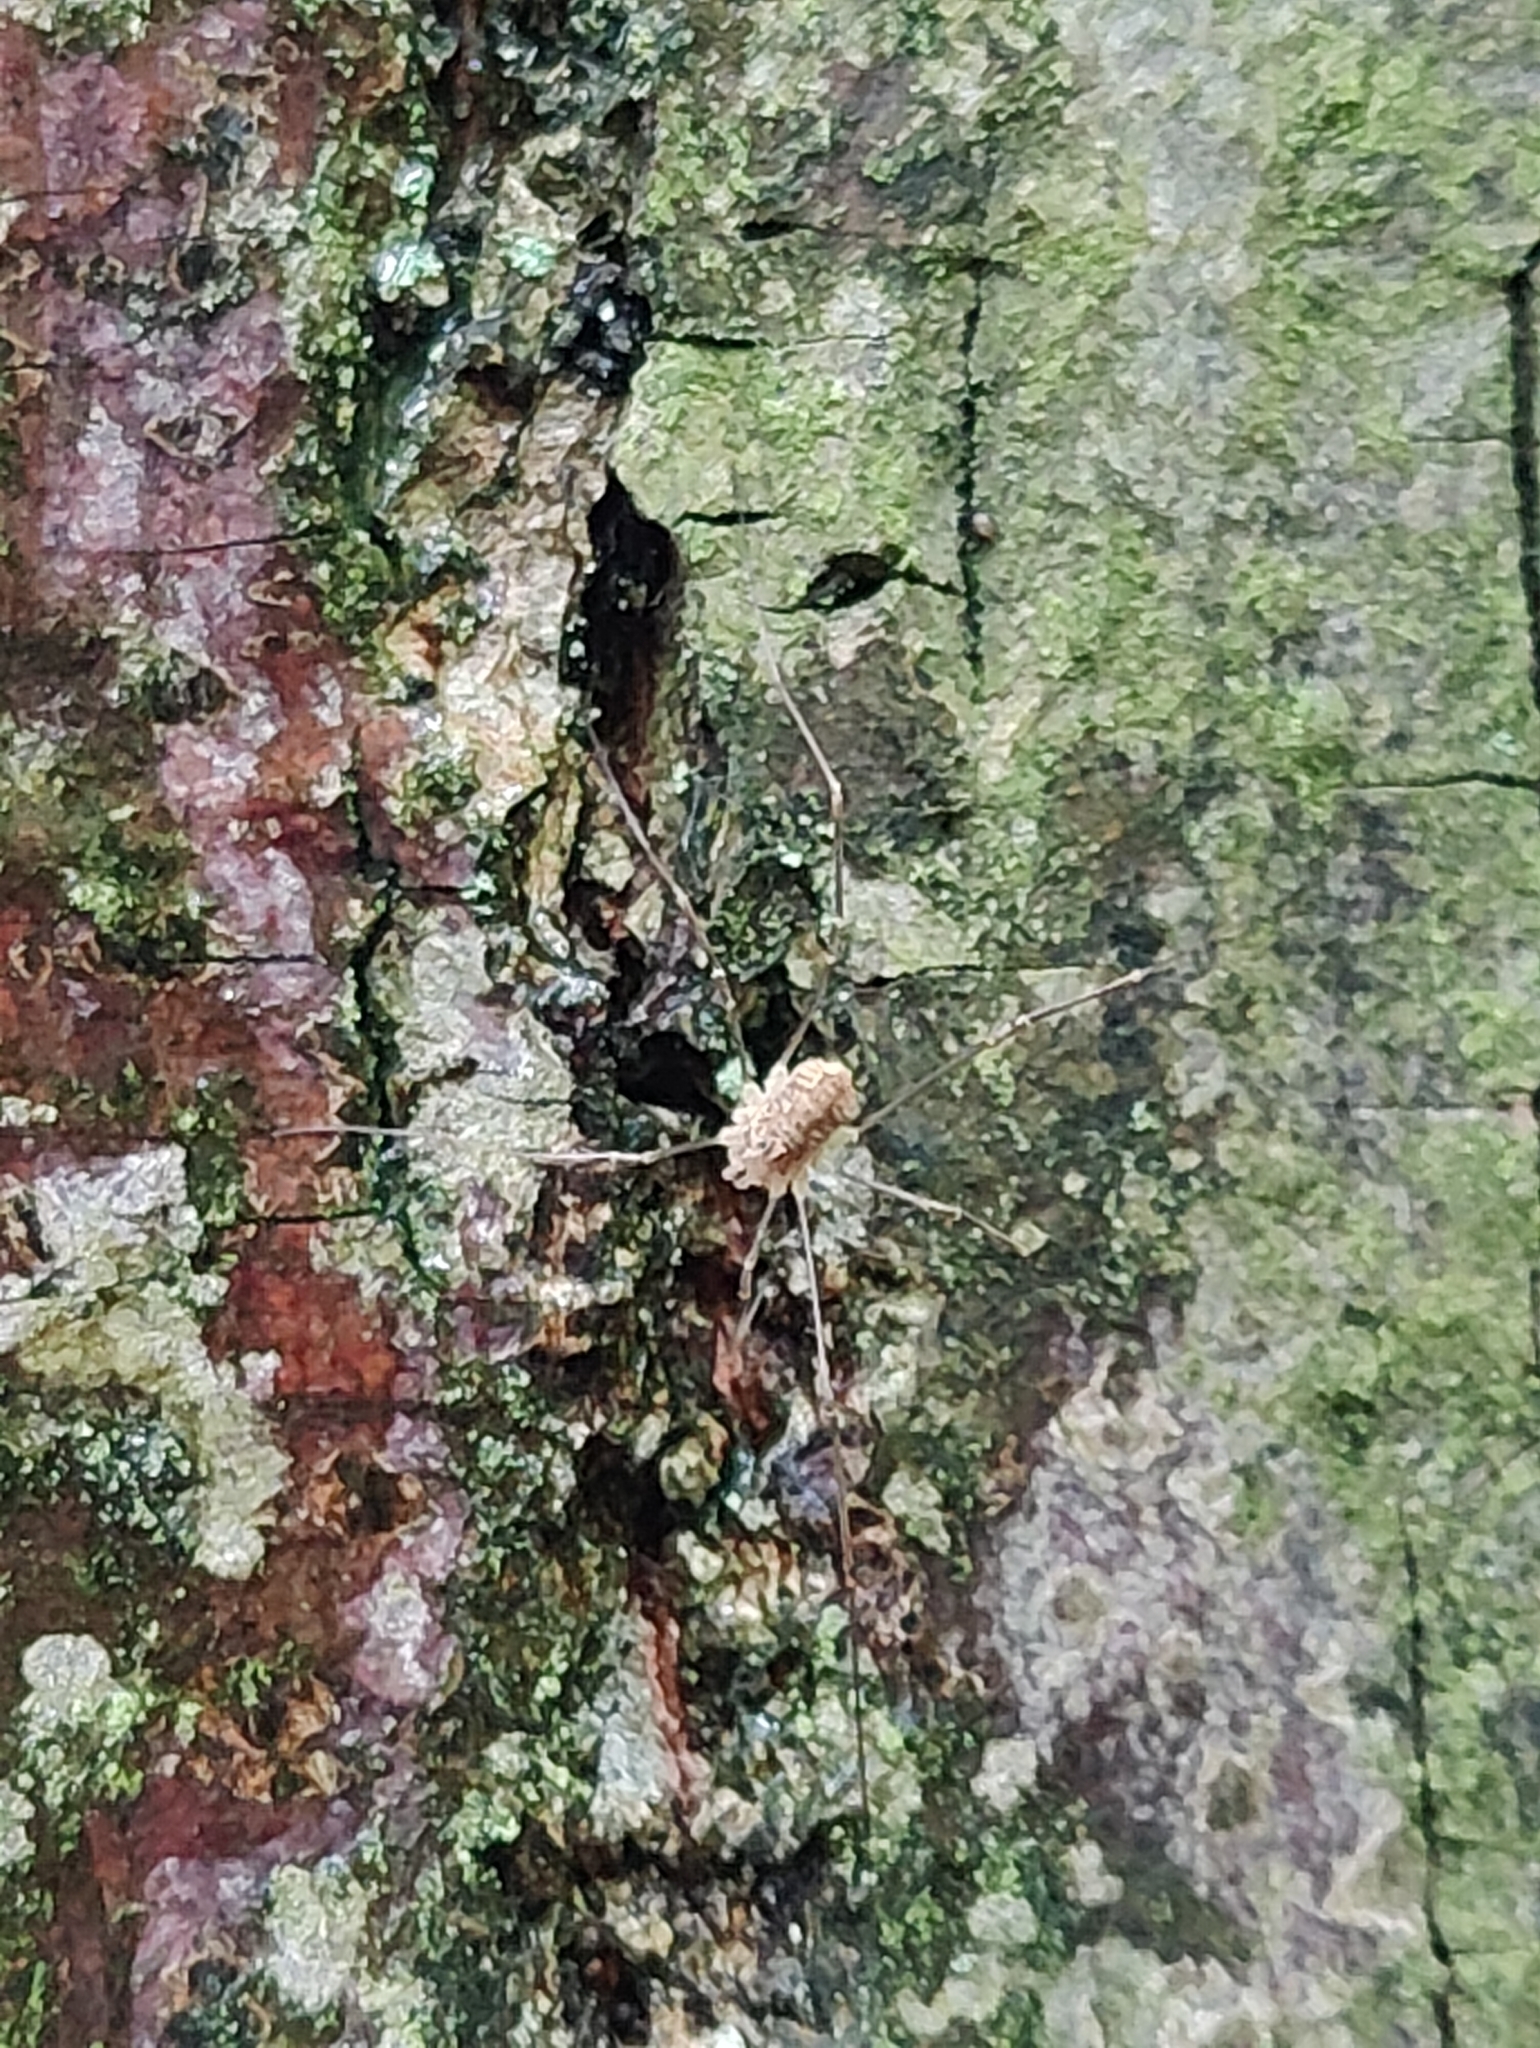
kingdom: Animalia
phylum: Arthropoda
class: Arachnida
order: Opiliones
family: Phalangiidae
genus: Rilaena
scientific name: Rilaena triangularis
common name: Spring harvestman
